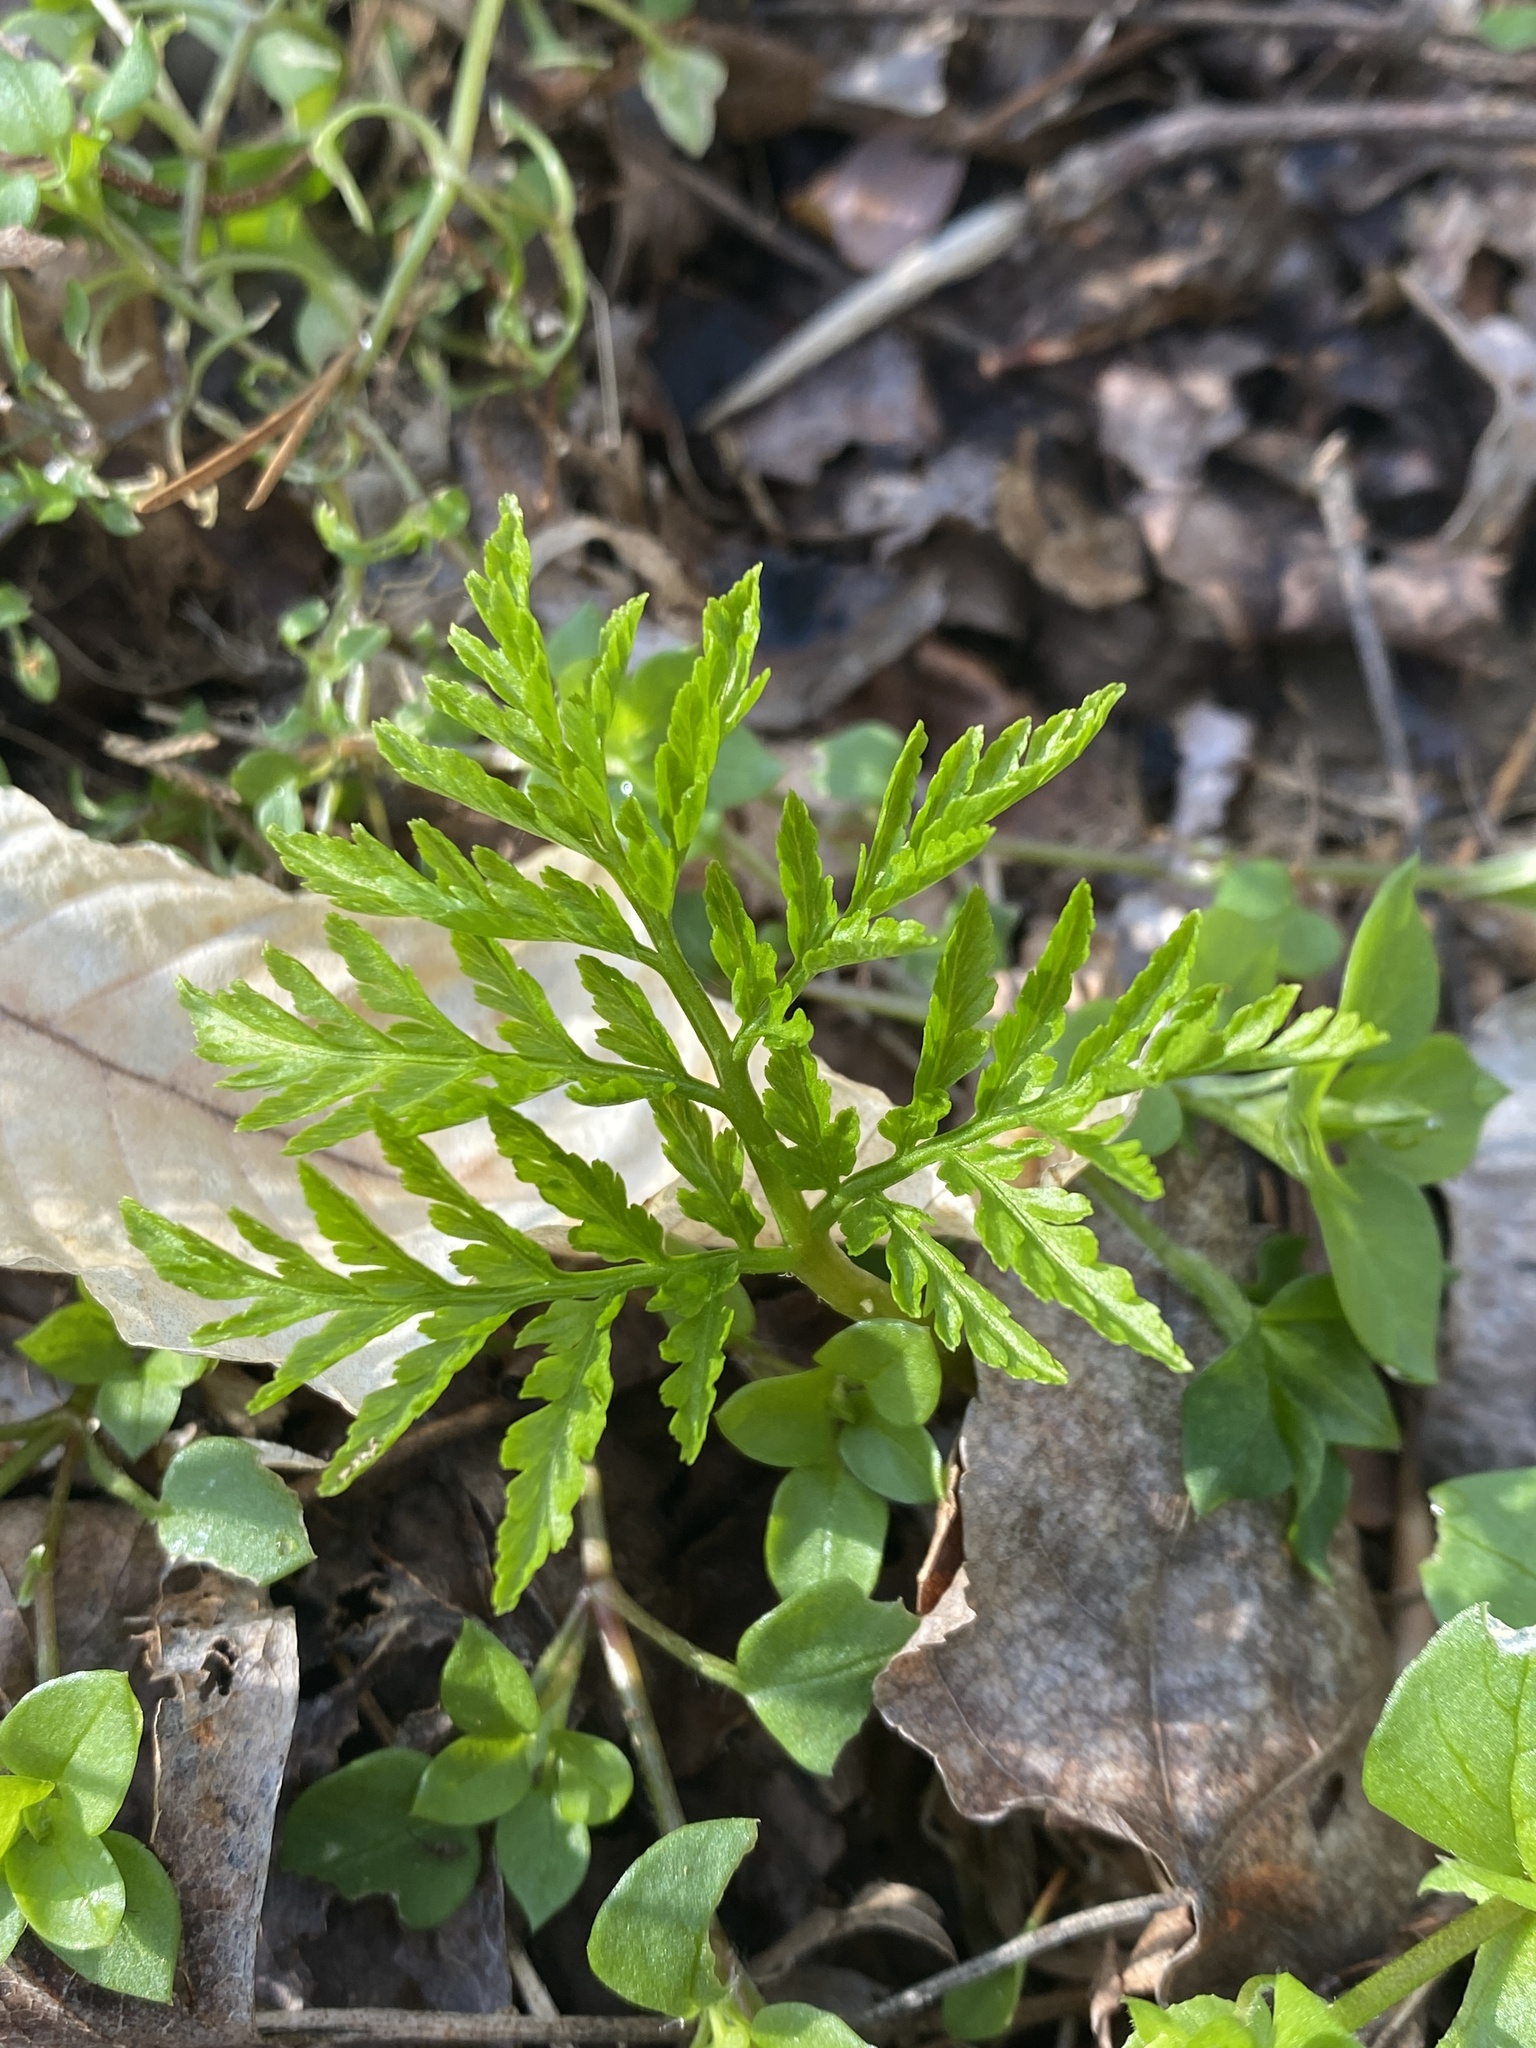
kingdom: Plantae
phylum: Tracheophyta
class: Polypodiopsida
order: Ophioglossales
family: Ophioglossaceae
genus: Botrypus
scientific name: Botrypus virginianus
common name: Common grapefern
